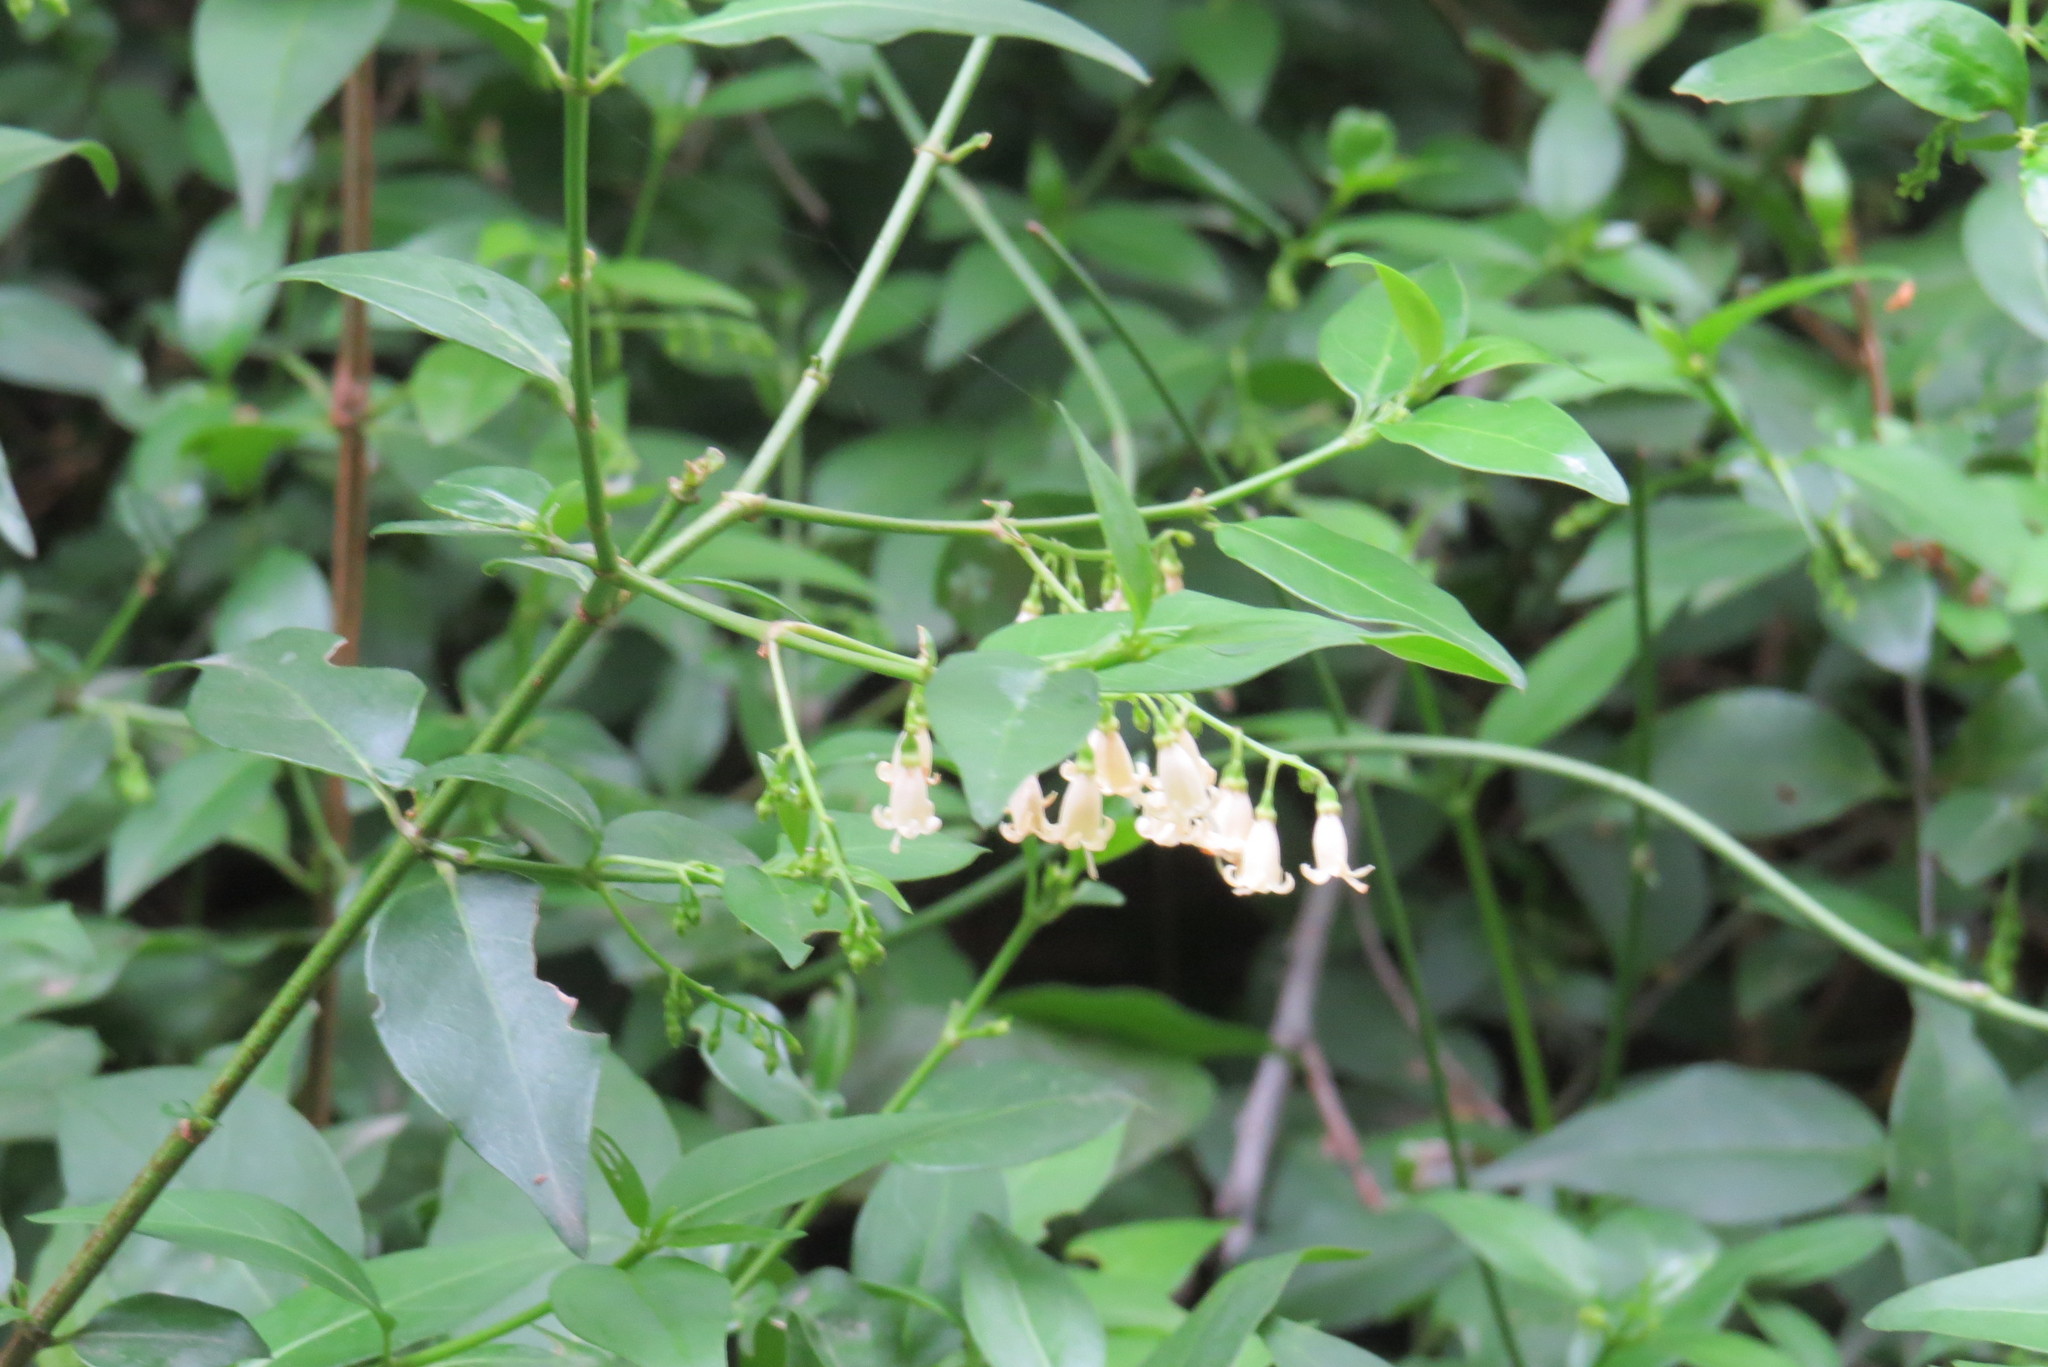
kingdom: Plantae
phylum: Tracheophyta
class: Magnoliopsida
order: Gentianales
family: Rubiaceae
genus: Chiococca
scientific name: Chiococca alba
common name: Snowberry
